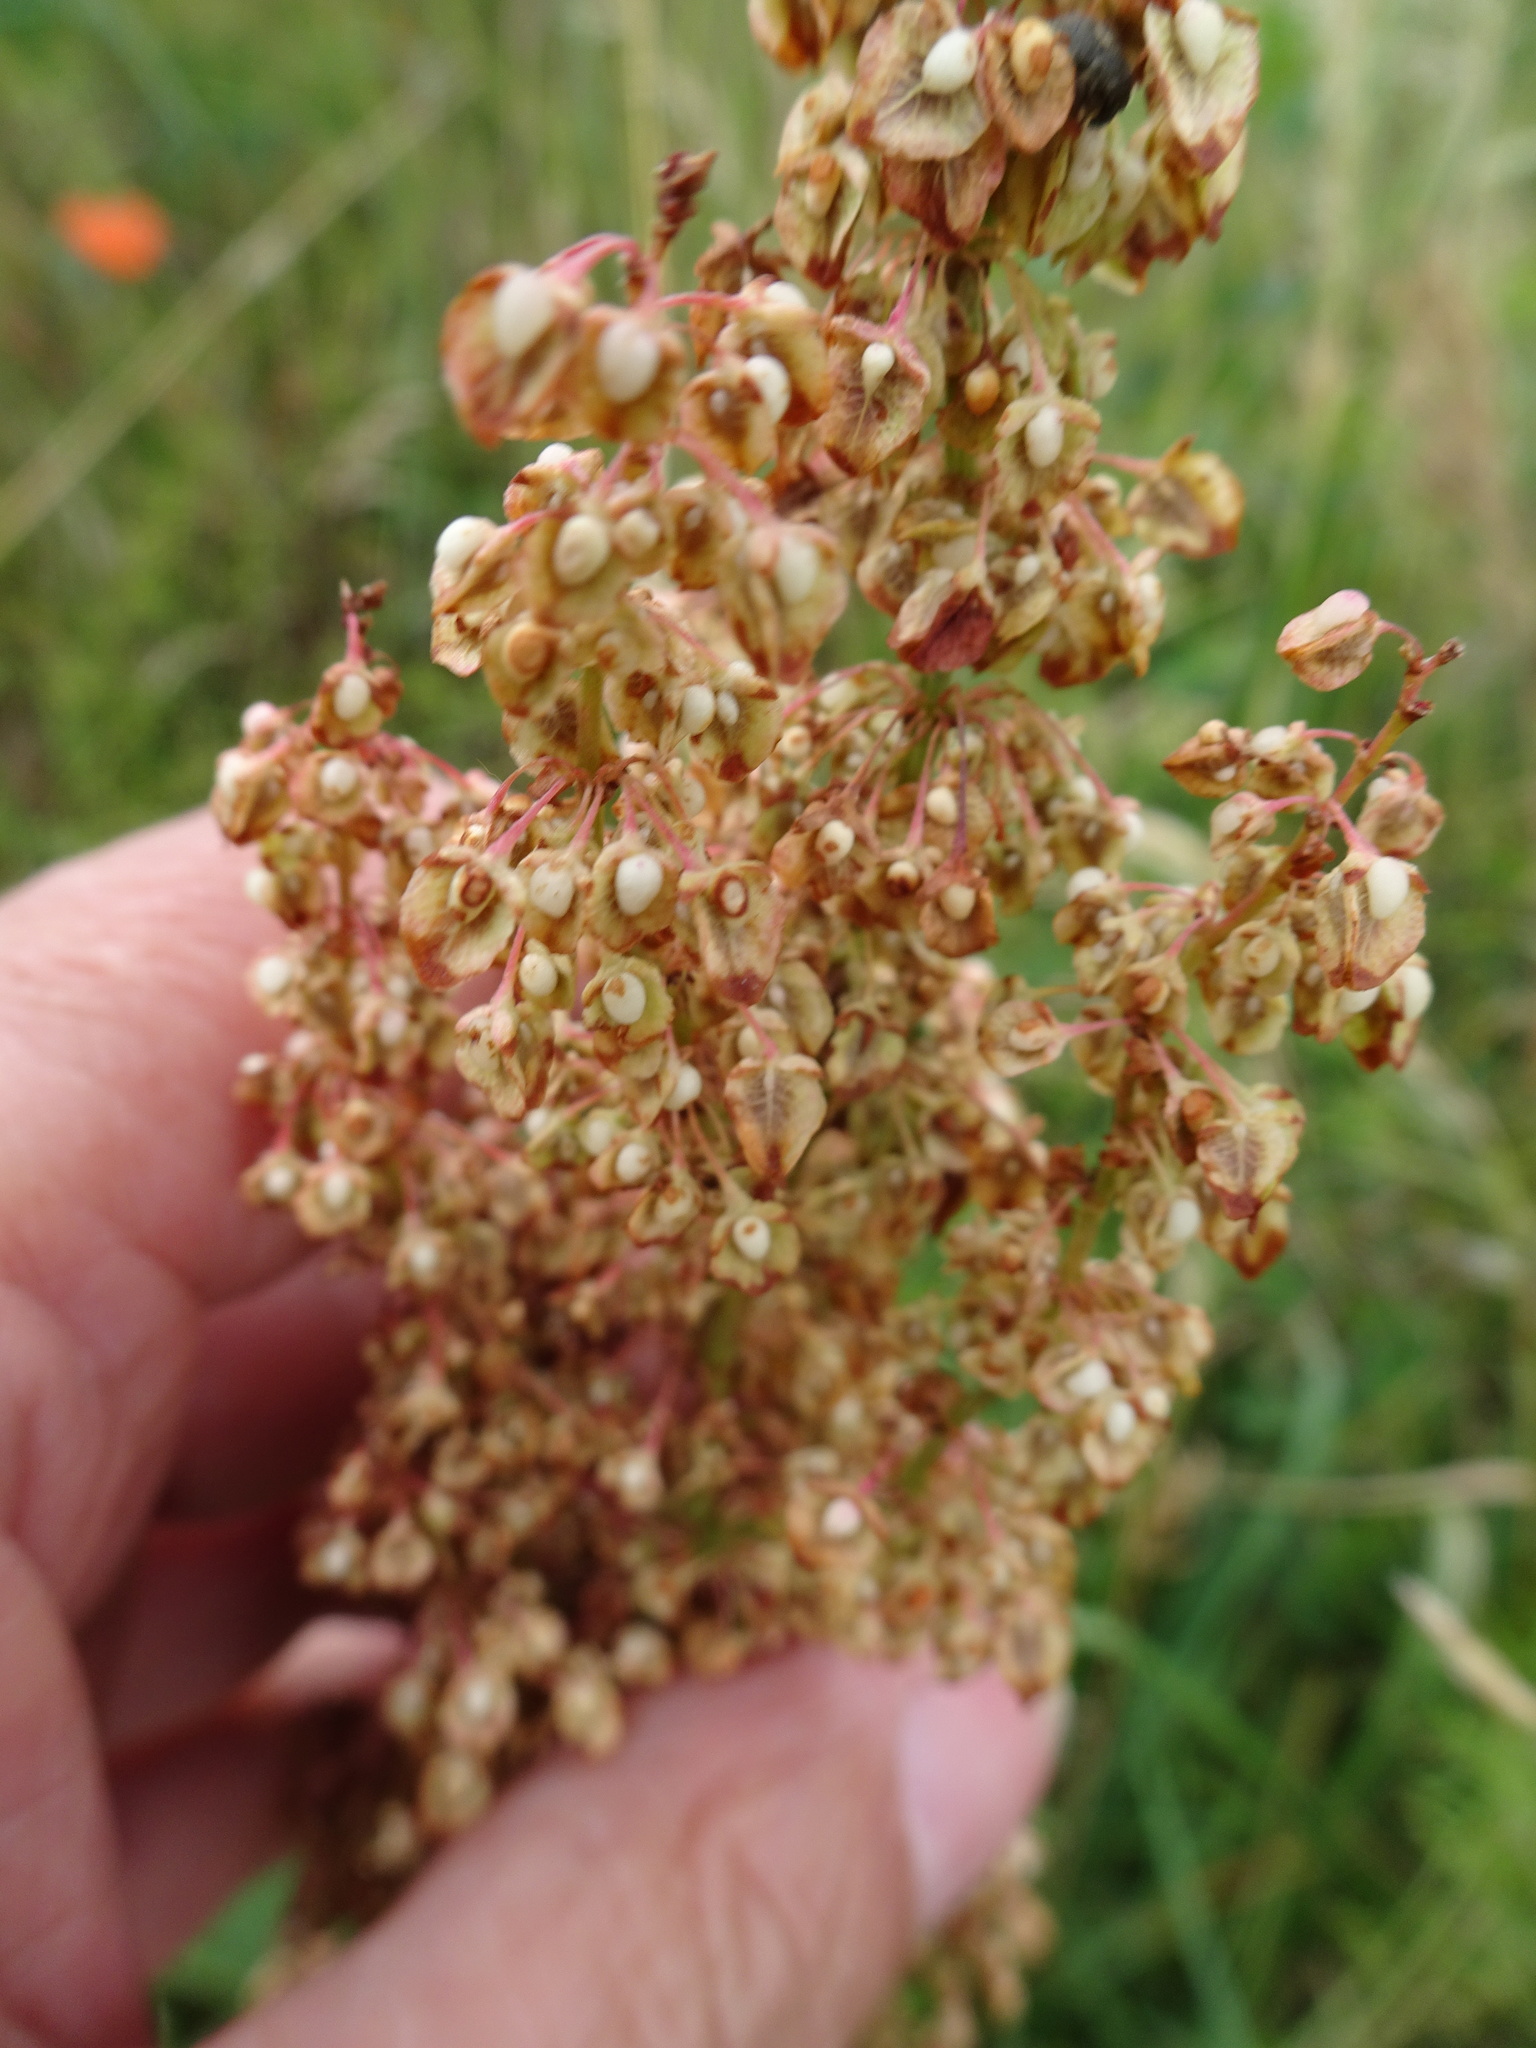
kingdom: Plantae
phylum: Tracheophyta
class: Magnoliopsida
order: Caryophyllales
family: Polygonaceae
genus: Rumex
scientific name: Rumex crispus
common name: Curled dock
